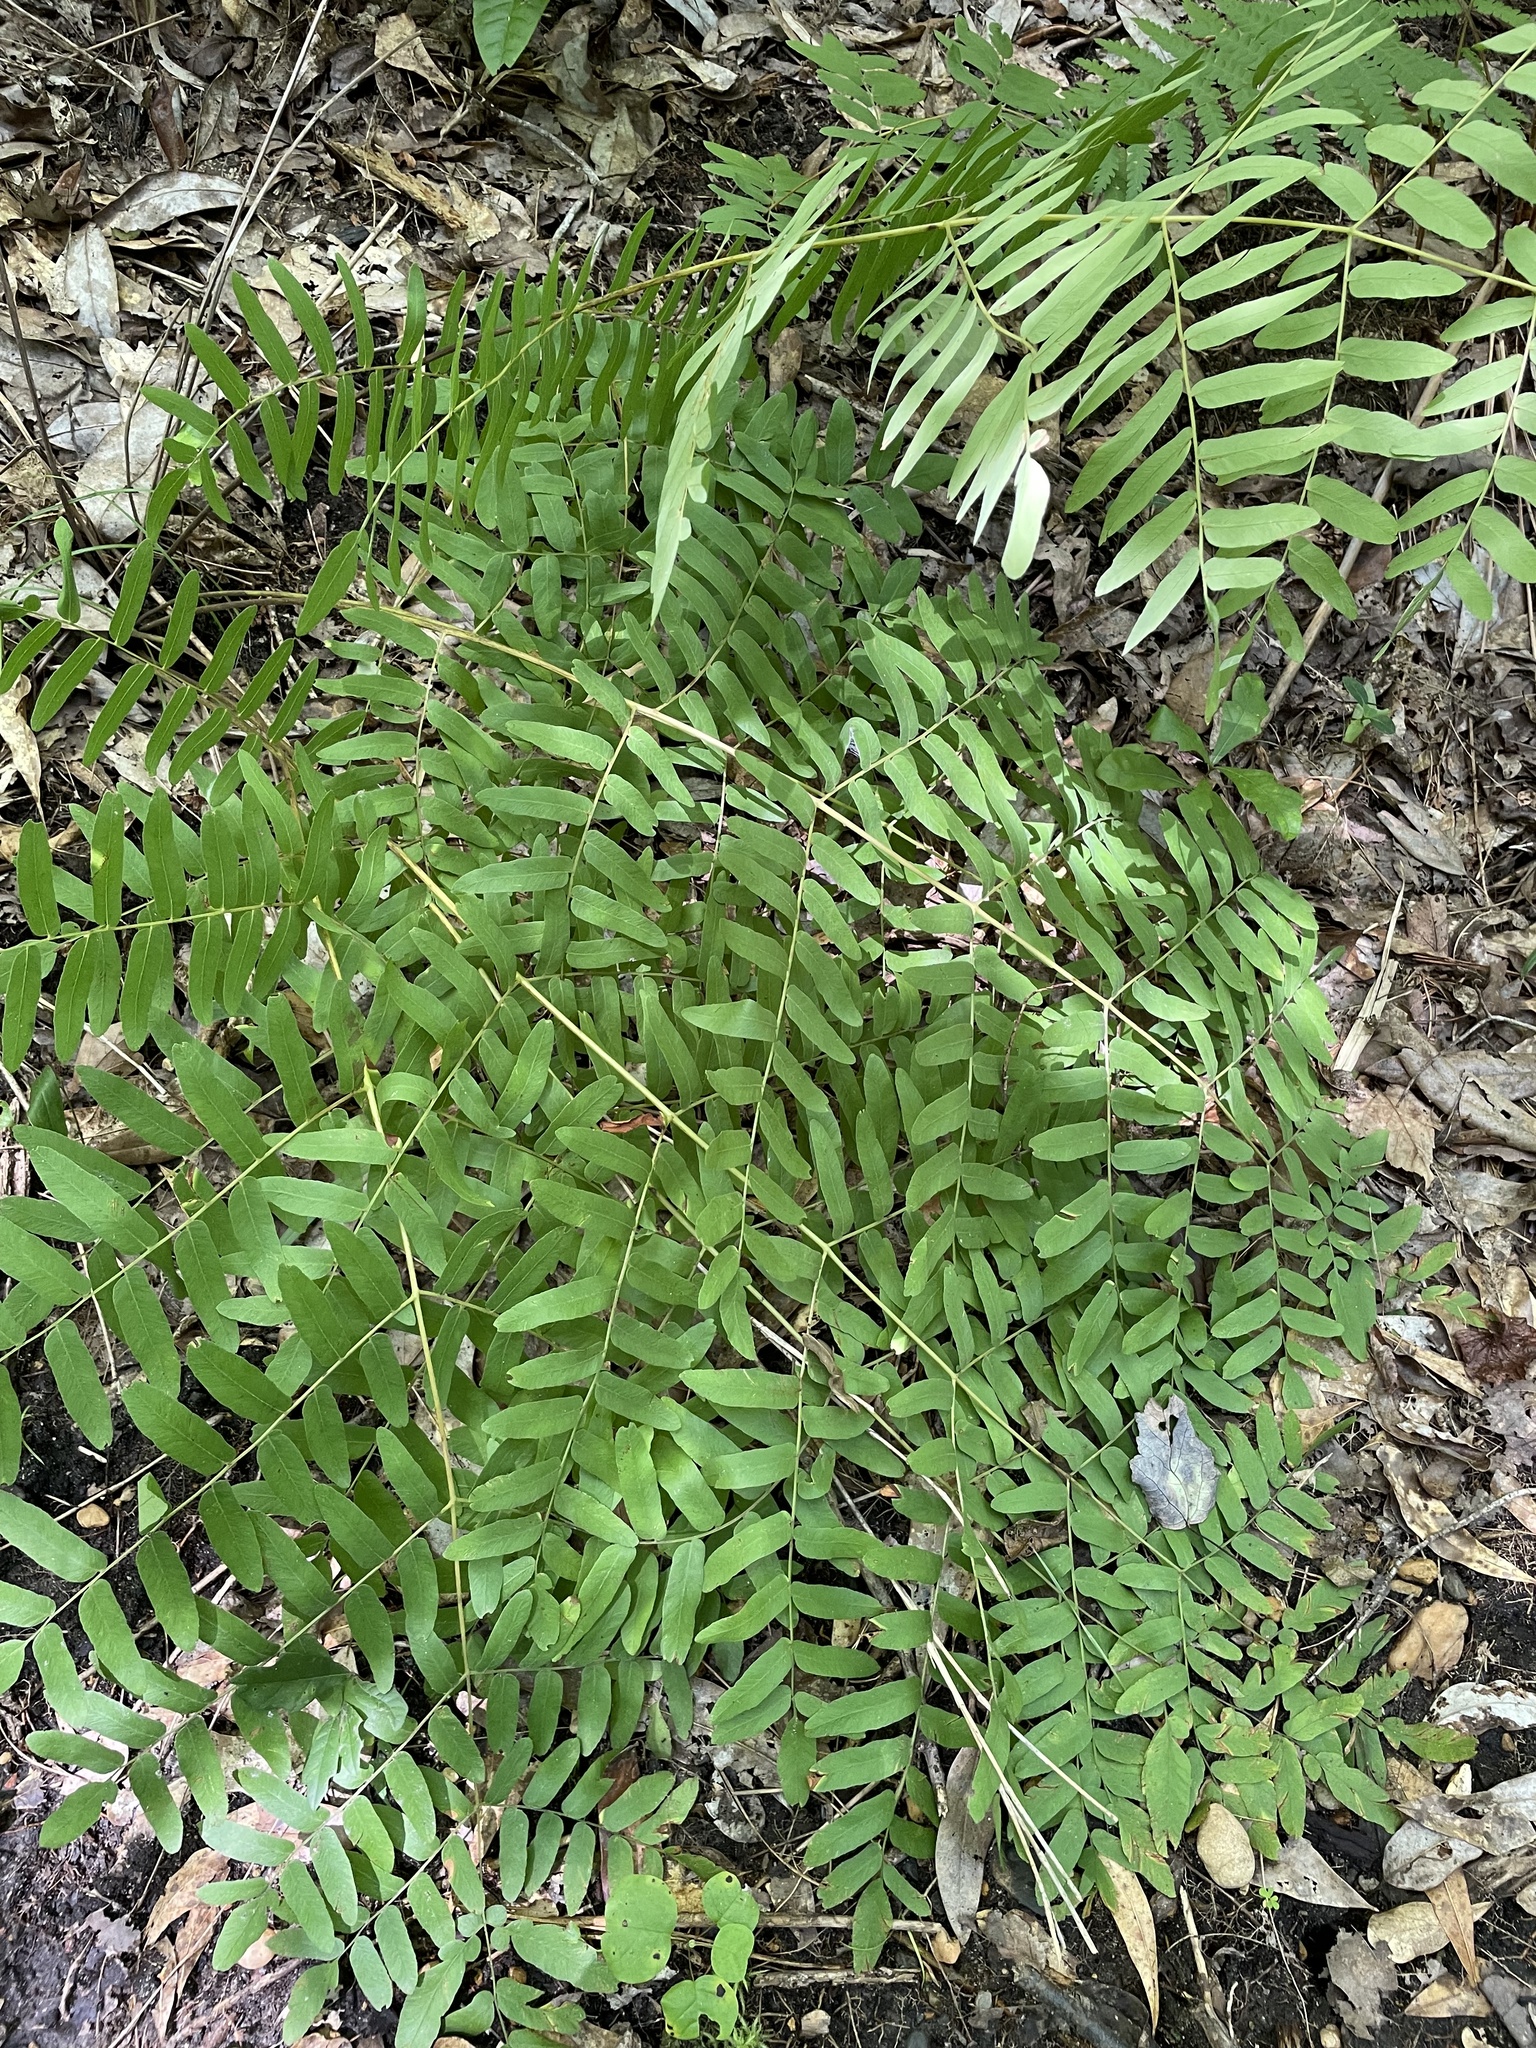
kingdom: Plantae
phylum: Tracheophyta
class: Polypodiopsida
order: Osmundales
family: Osmundaceae
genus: Osmunda
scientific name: Osmunda spectabilis
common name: American royal fern
